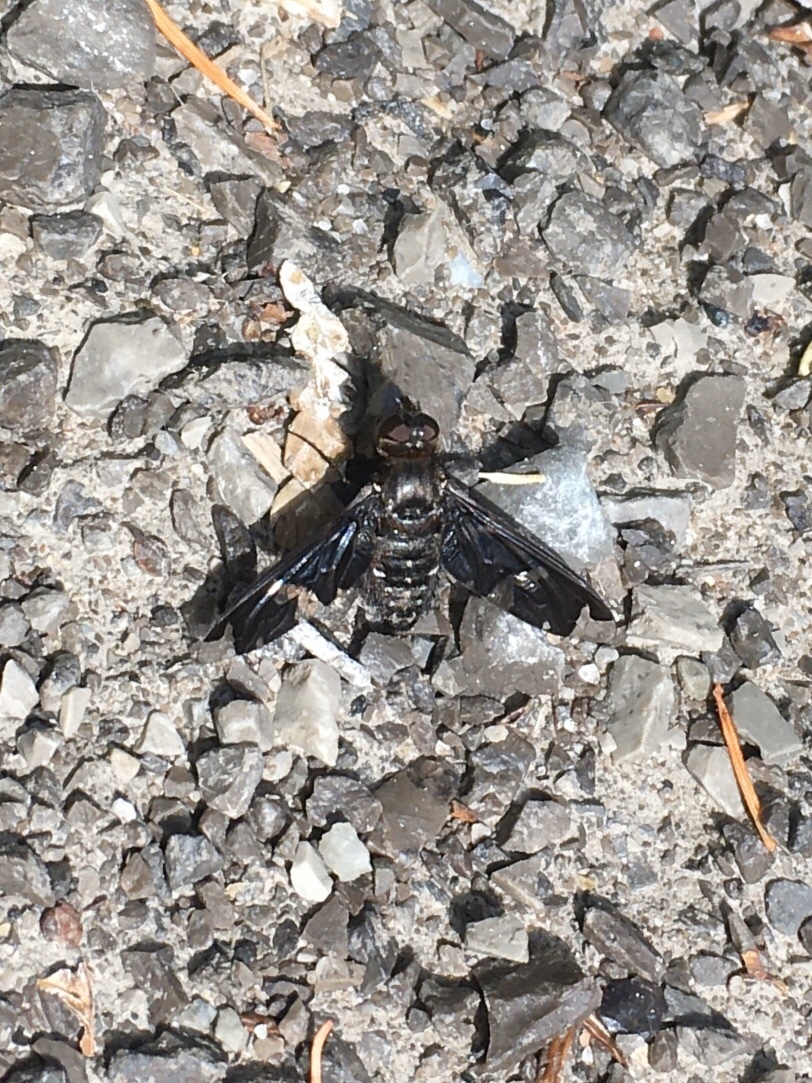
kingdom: Animalia
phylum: Arthropoda
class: Insecta
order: Diptera
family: Bombyliidae
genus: Exoprosopa
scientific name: Exoprosopa decora
